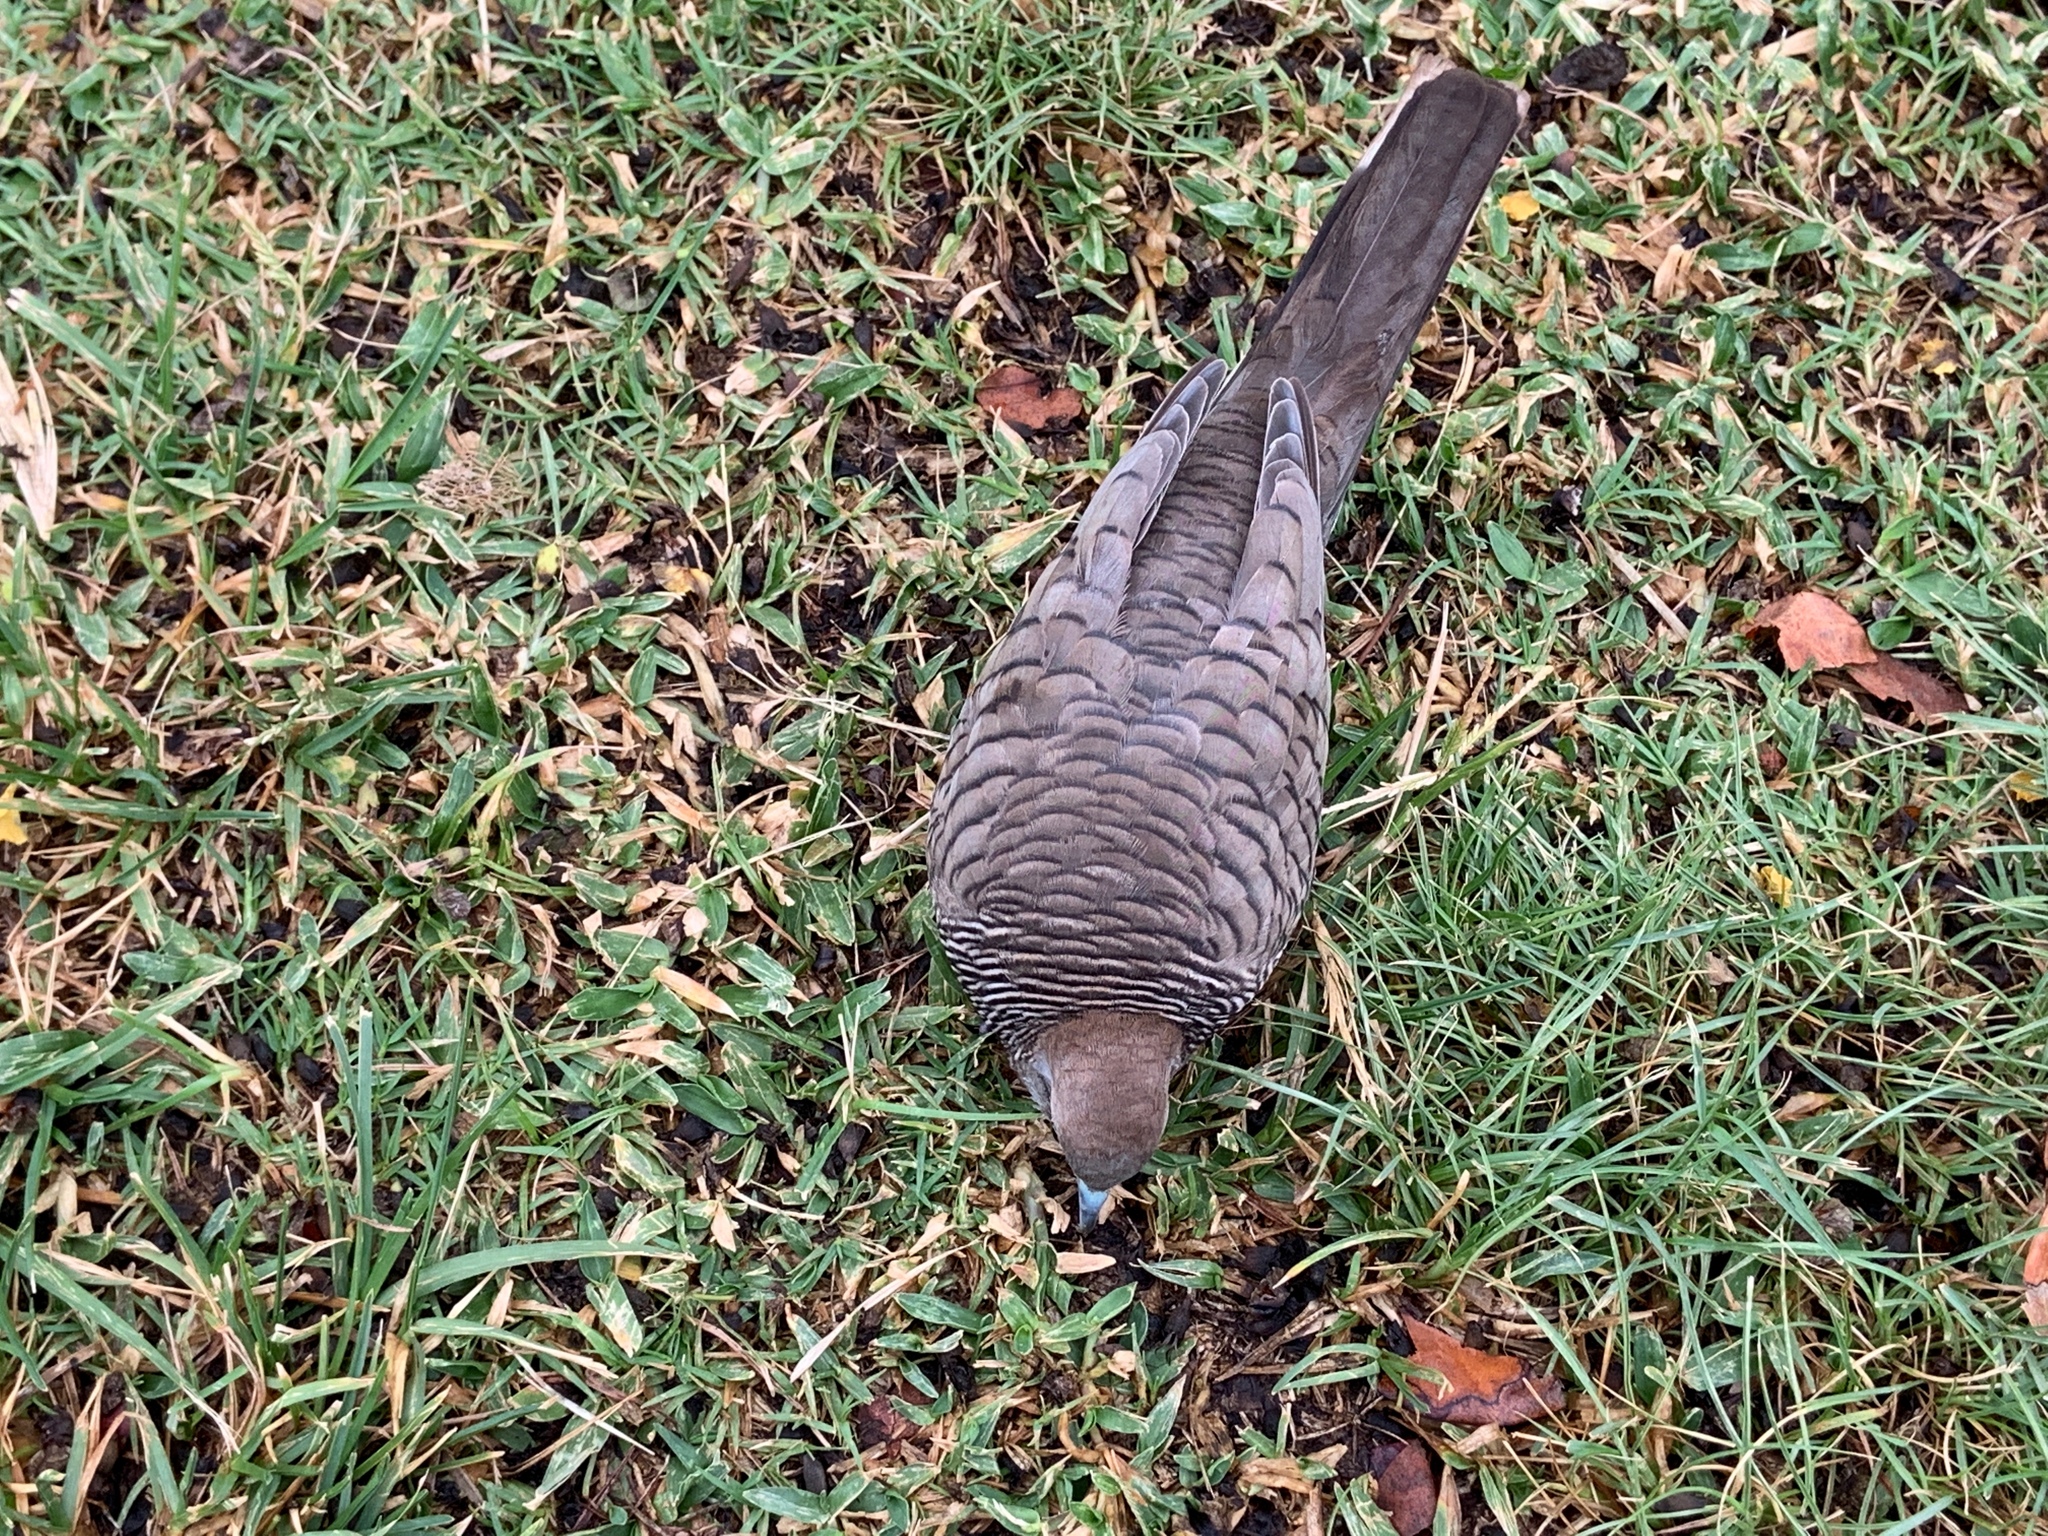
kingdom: Animalia
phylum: Chordata
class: Aves
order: Columbiformes
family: Columbidae
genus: Geopelia
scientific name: Geopelia striata
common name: Zebra dove
